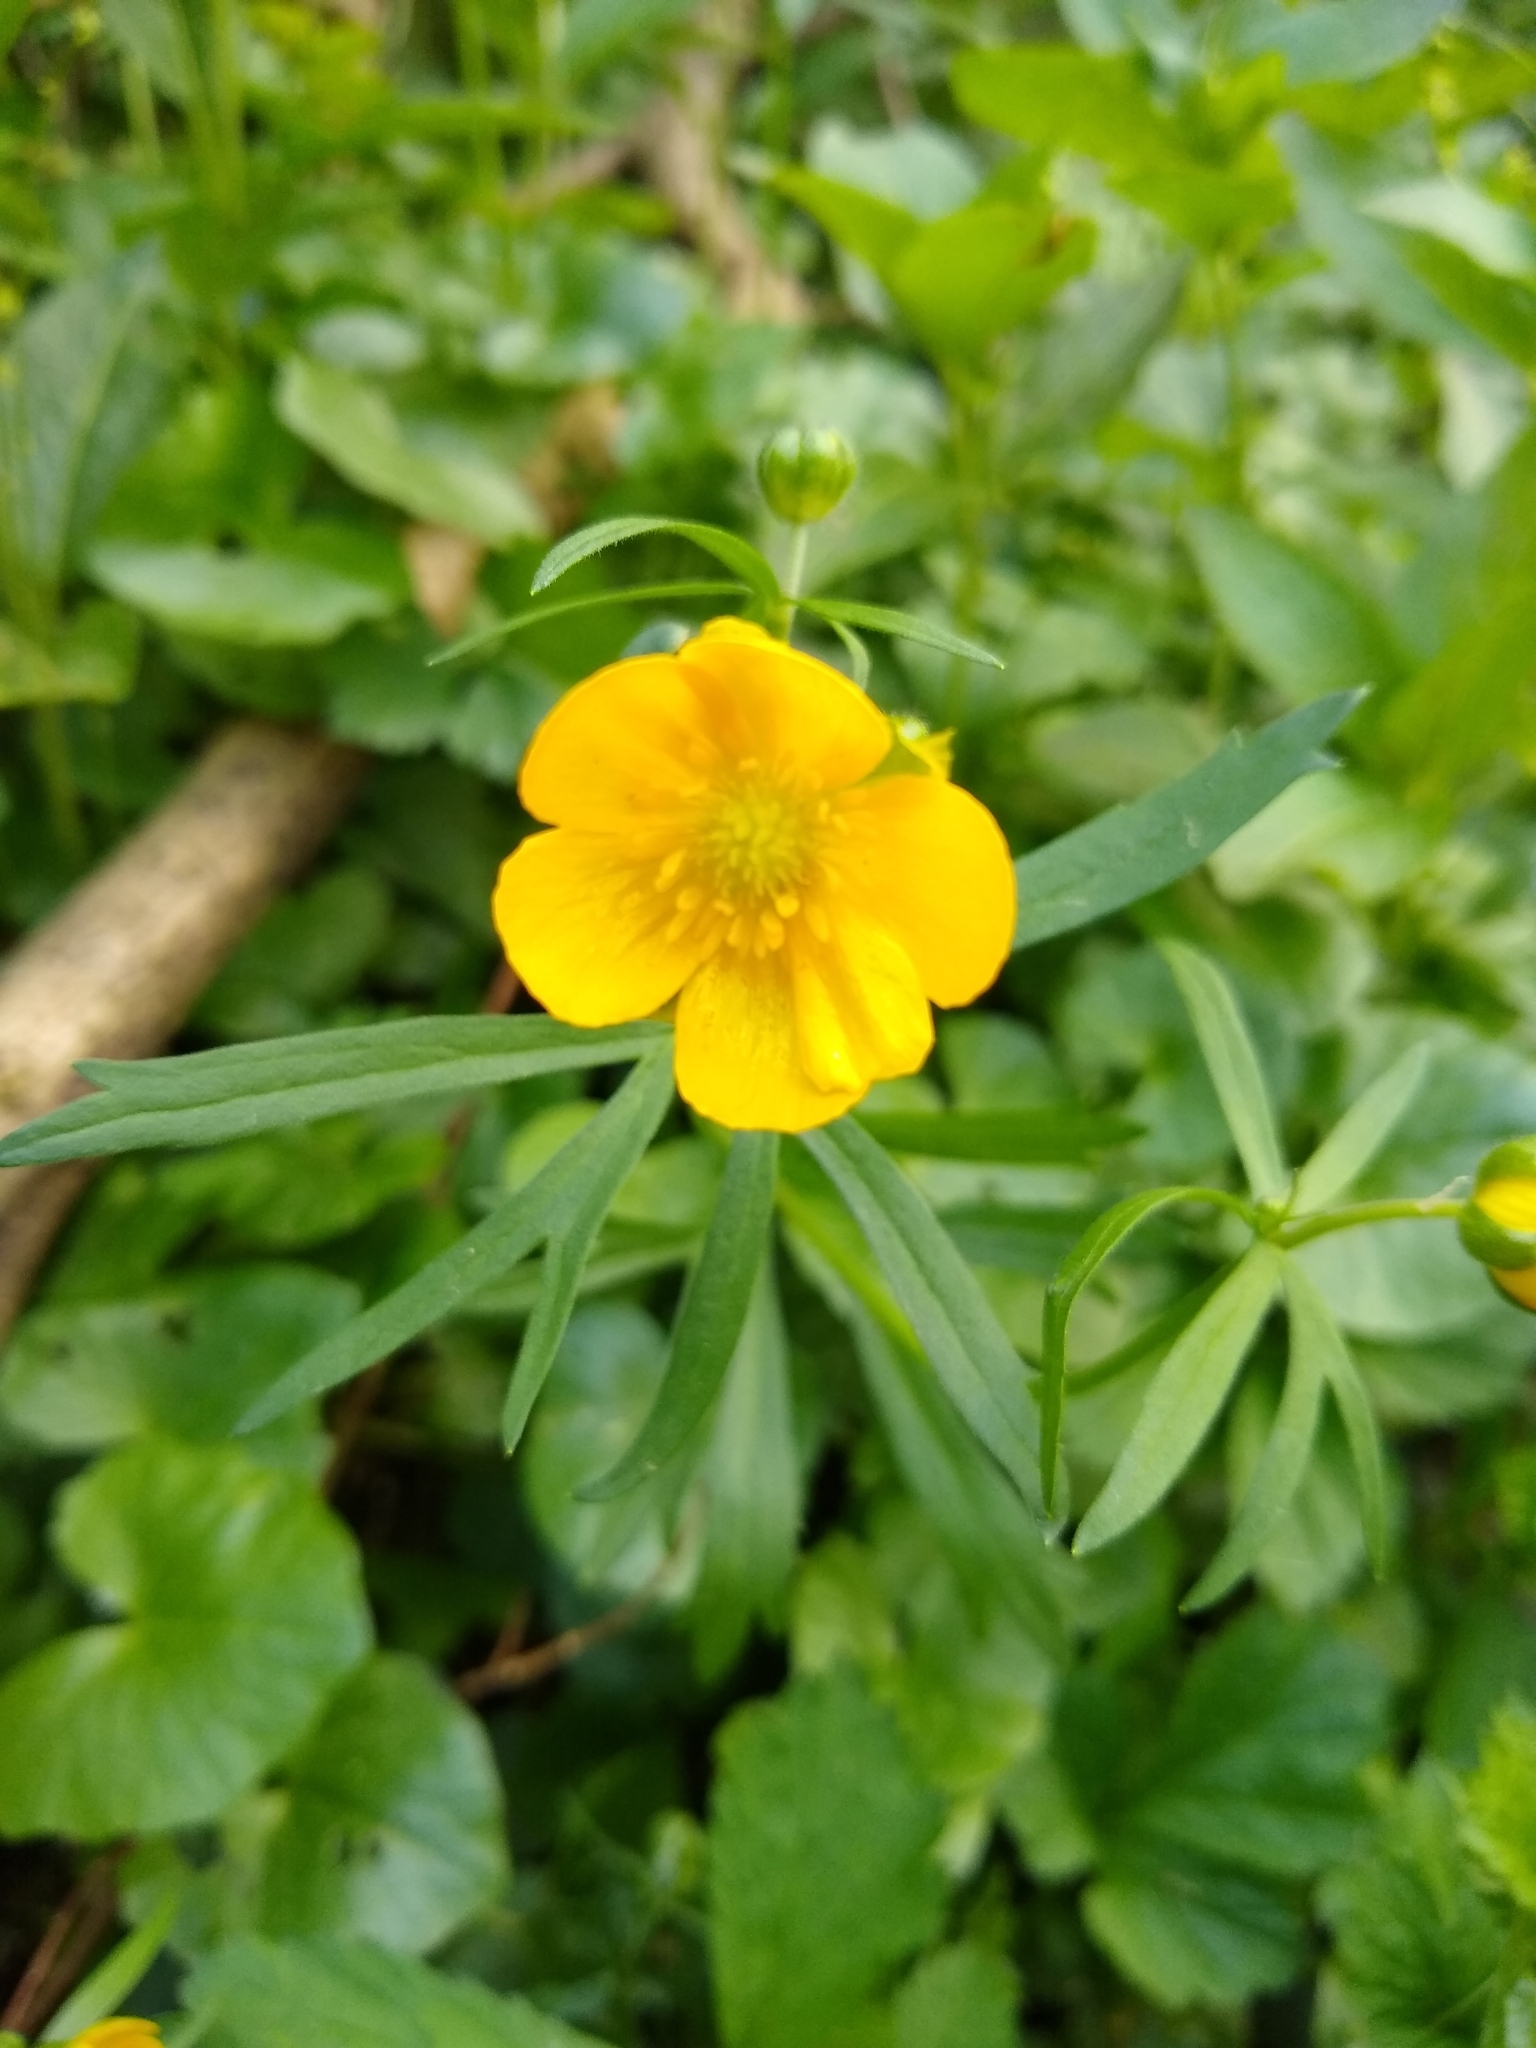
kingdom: Plantae
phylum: Tracheophyta
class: Magnoliopsida
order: Ranunculales
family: Ranunculaceae
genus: Ranunculus
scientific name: Ranunculus acris
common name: Meadow buttercup
